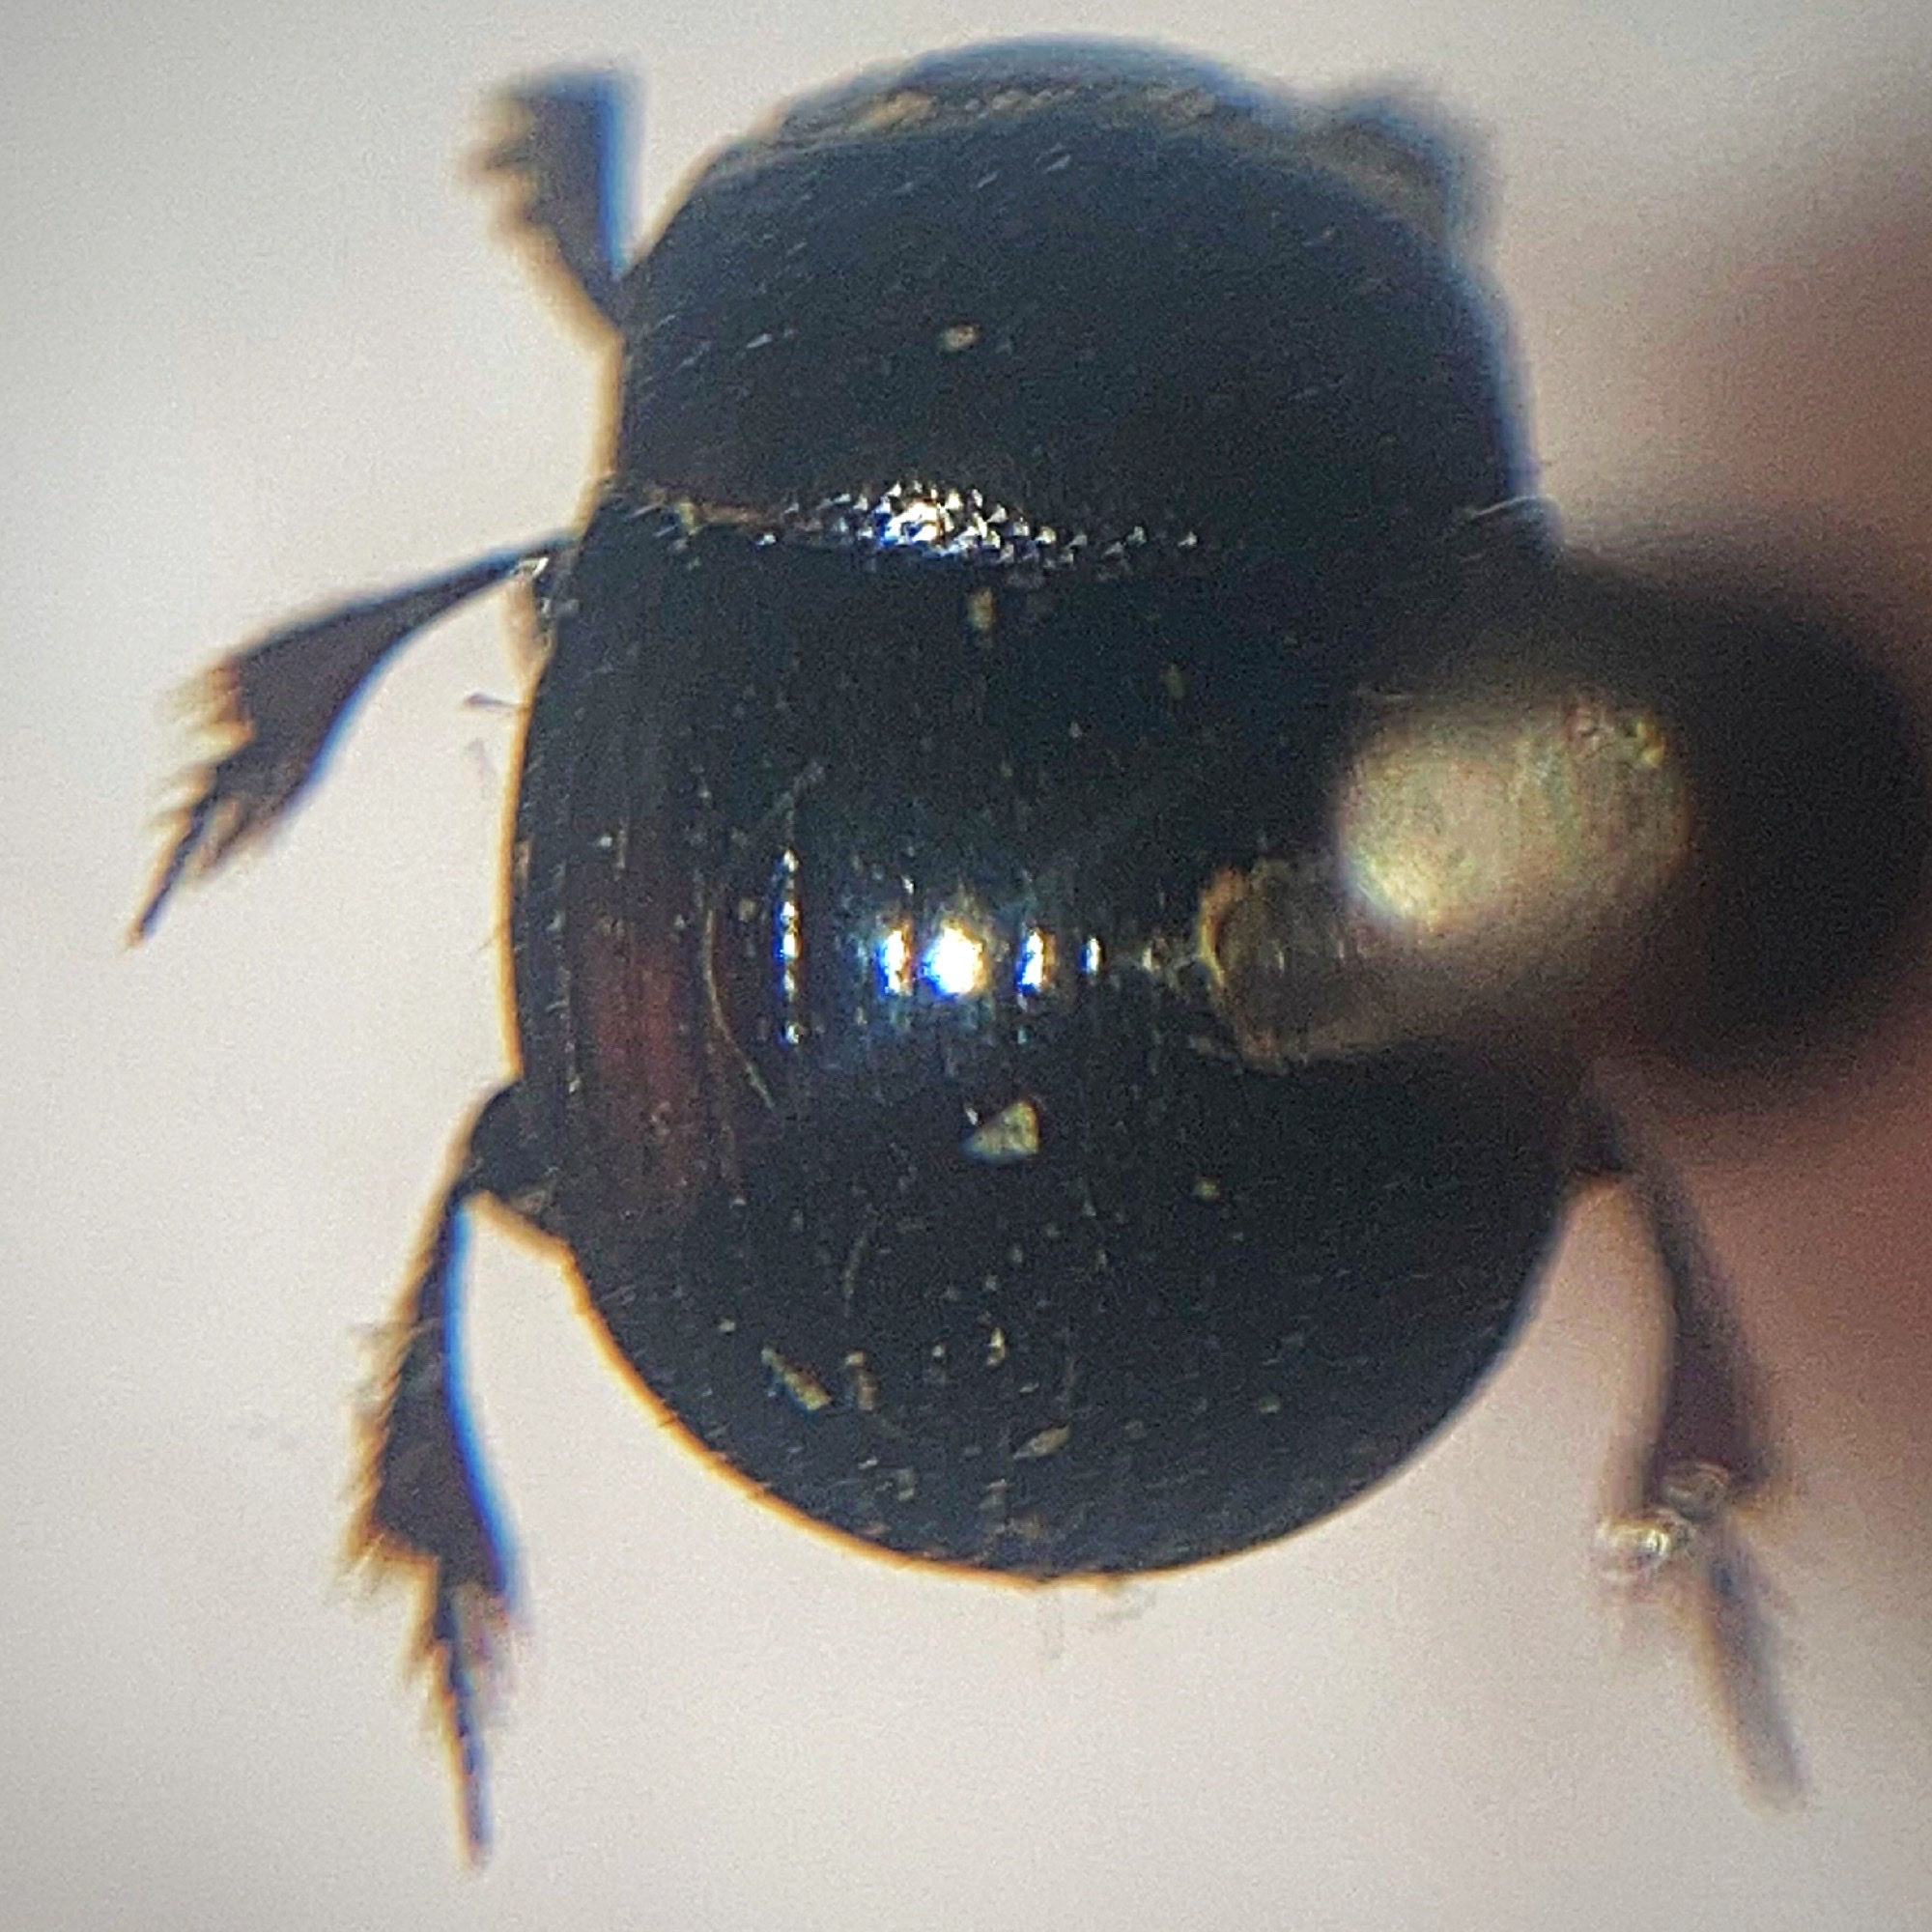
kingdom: Animalia
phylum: Arthropoda
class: Insecta
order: Coleoptera
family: Scarabaeidae
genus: Ateuchus
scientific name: Ateuchus histeroides
